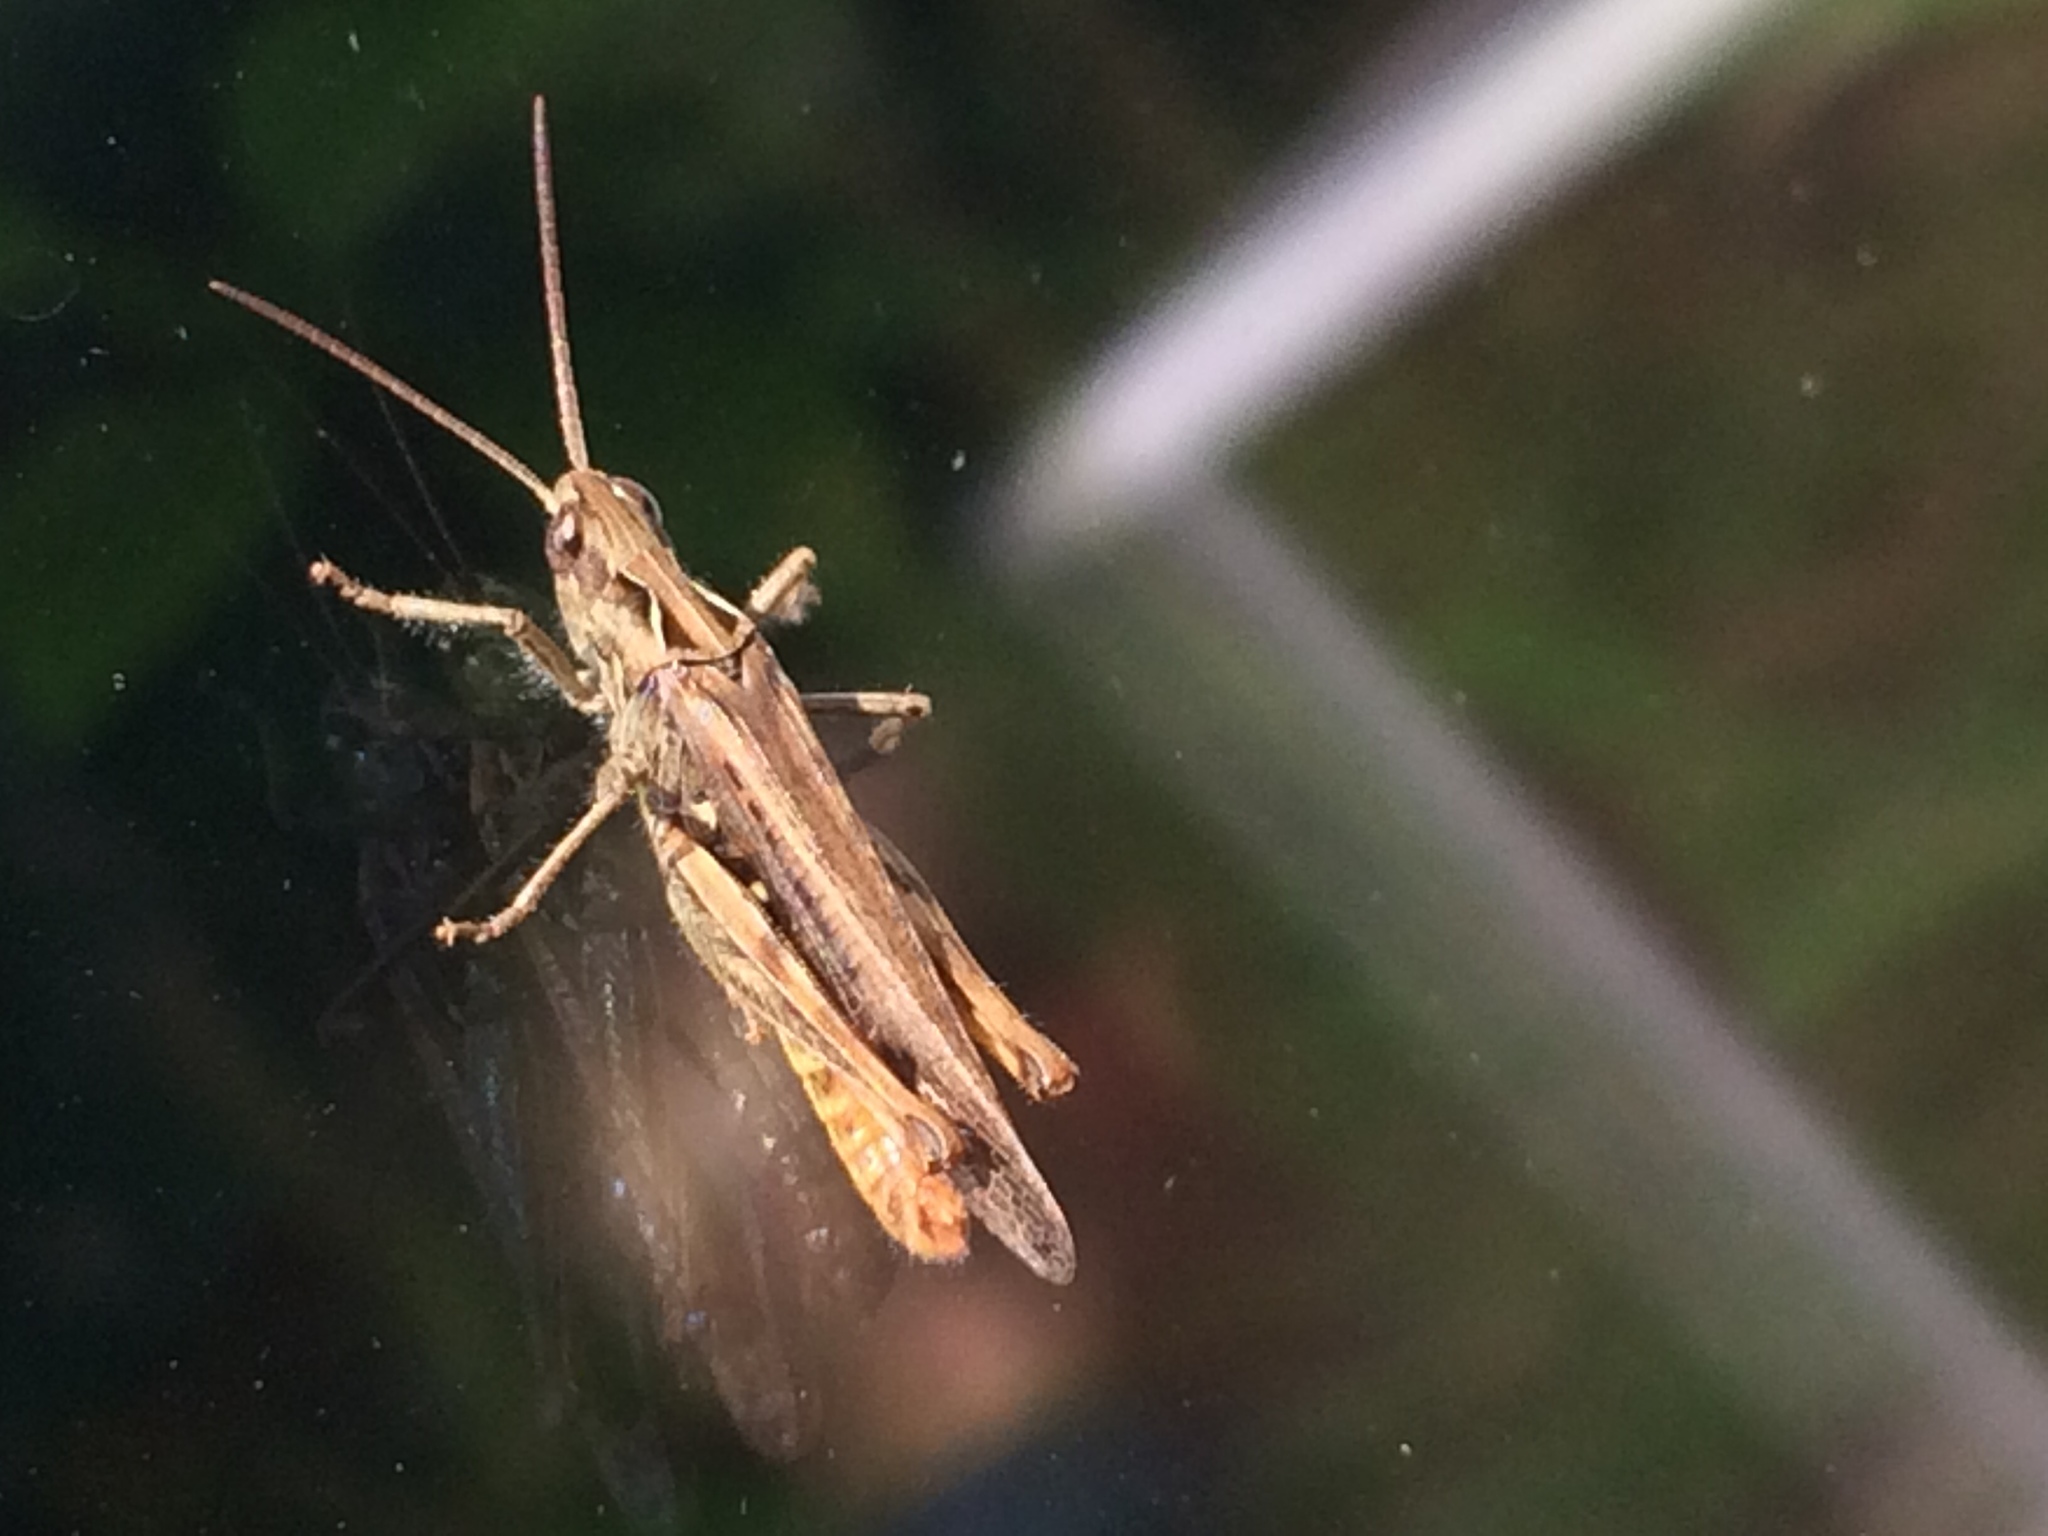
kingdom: Animalia
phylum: Arthropoda
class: Insecta
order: Orthoptera
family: Acrididae
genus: Chorthippus
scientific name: Chorthippus brunneus
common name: Field grasshopper
